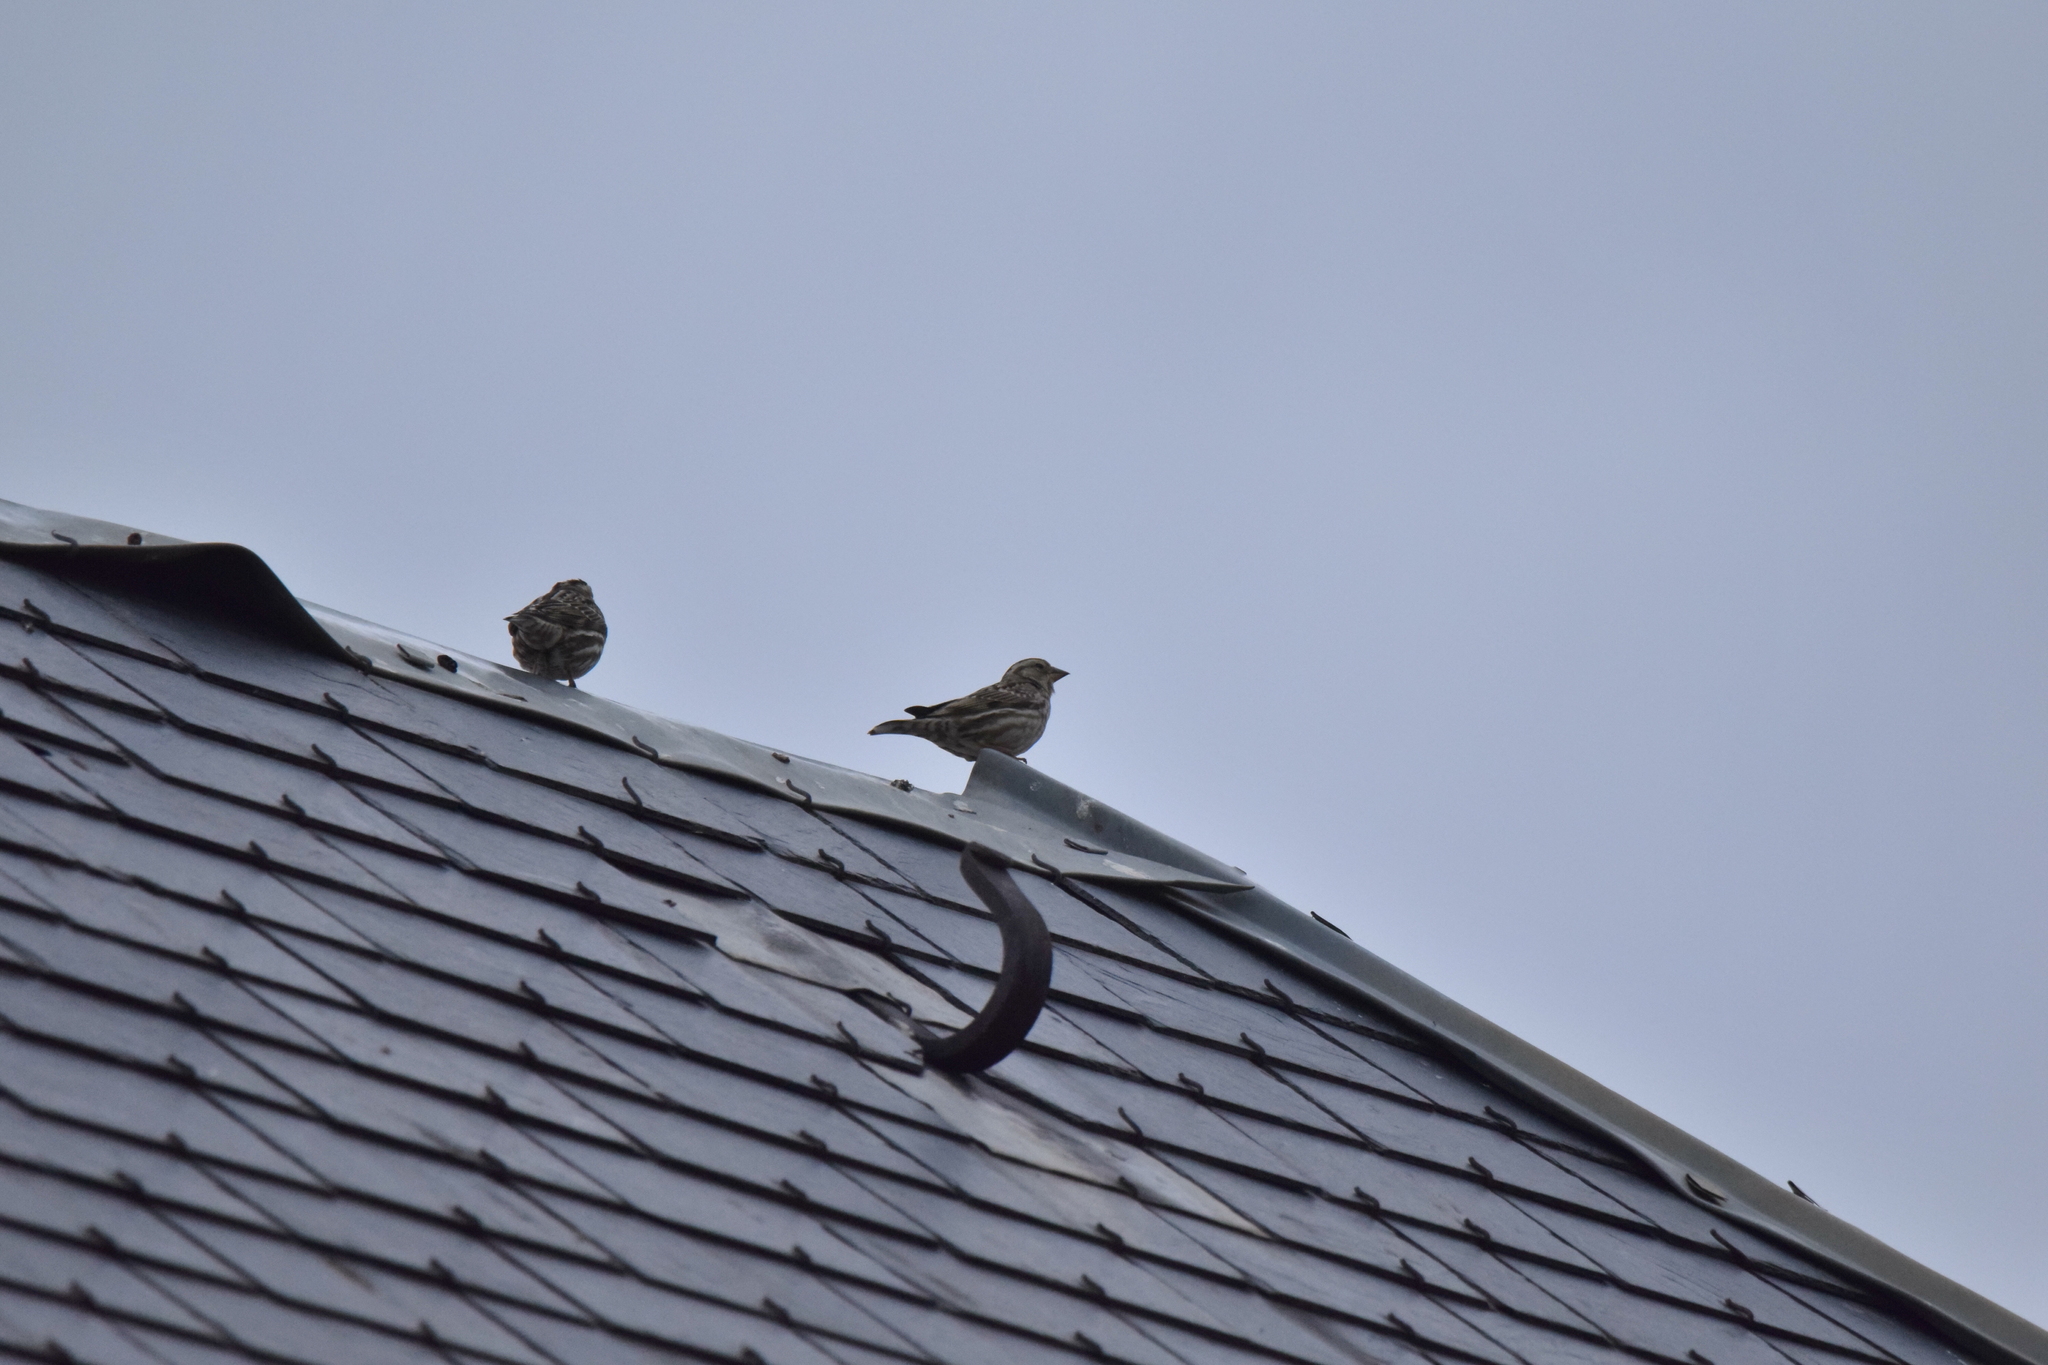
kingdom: Animalia
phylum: Chordata
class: Aves
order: Passeriformes
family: Passeridae
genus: Petronia
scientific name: Petronia petronia
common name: Rock sparrow
